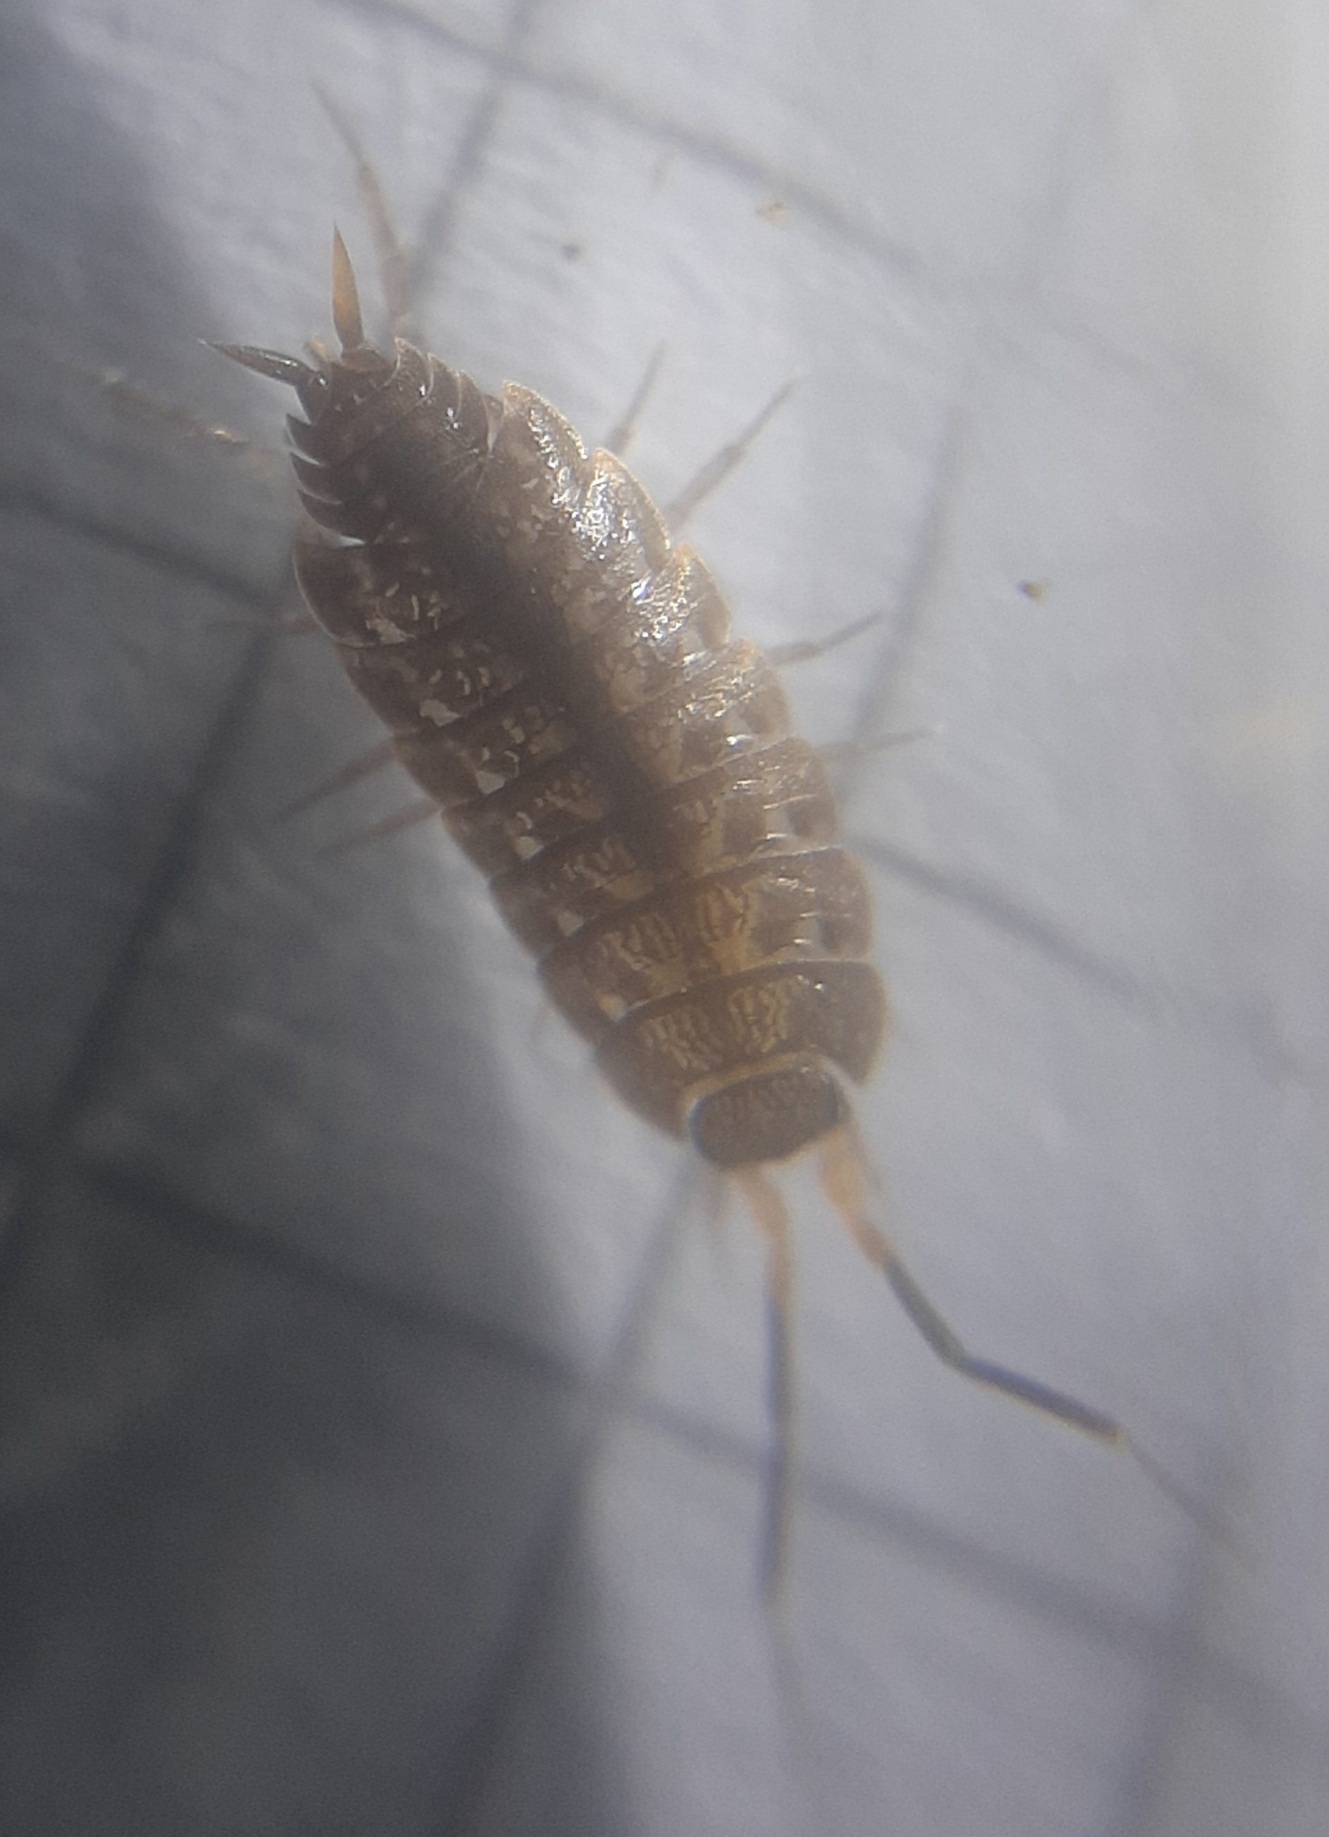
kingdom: Animalia
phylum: Arthropoda
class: Malacostraca
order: Isopoda
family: Agnaridae
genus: Orthometopon
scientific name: Orthometopon planum
